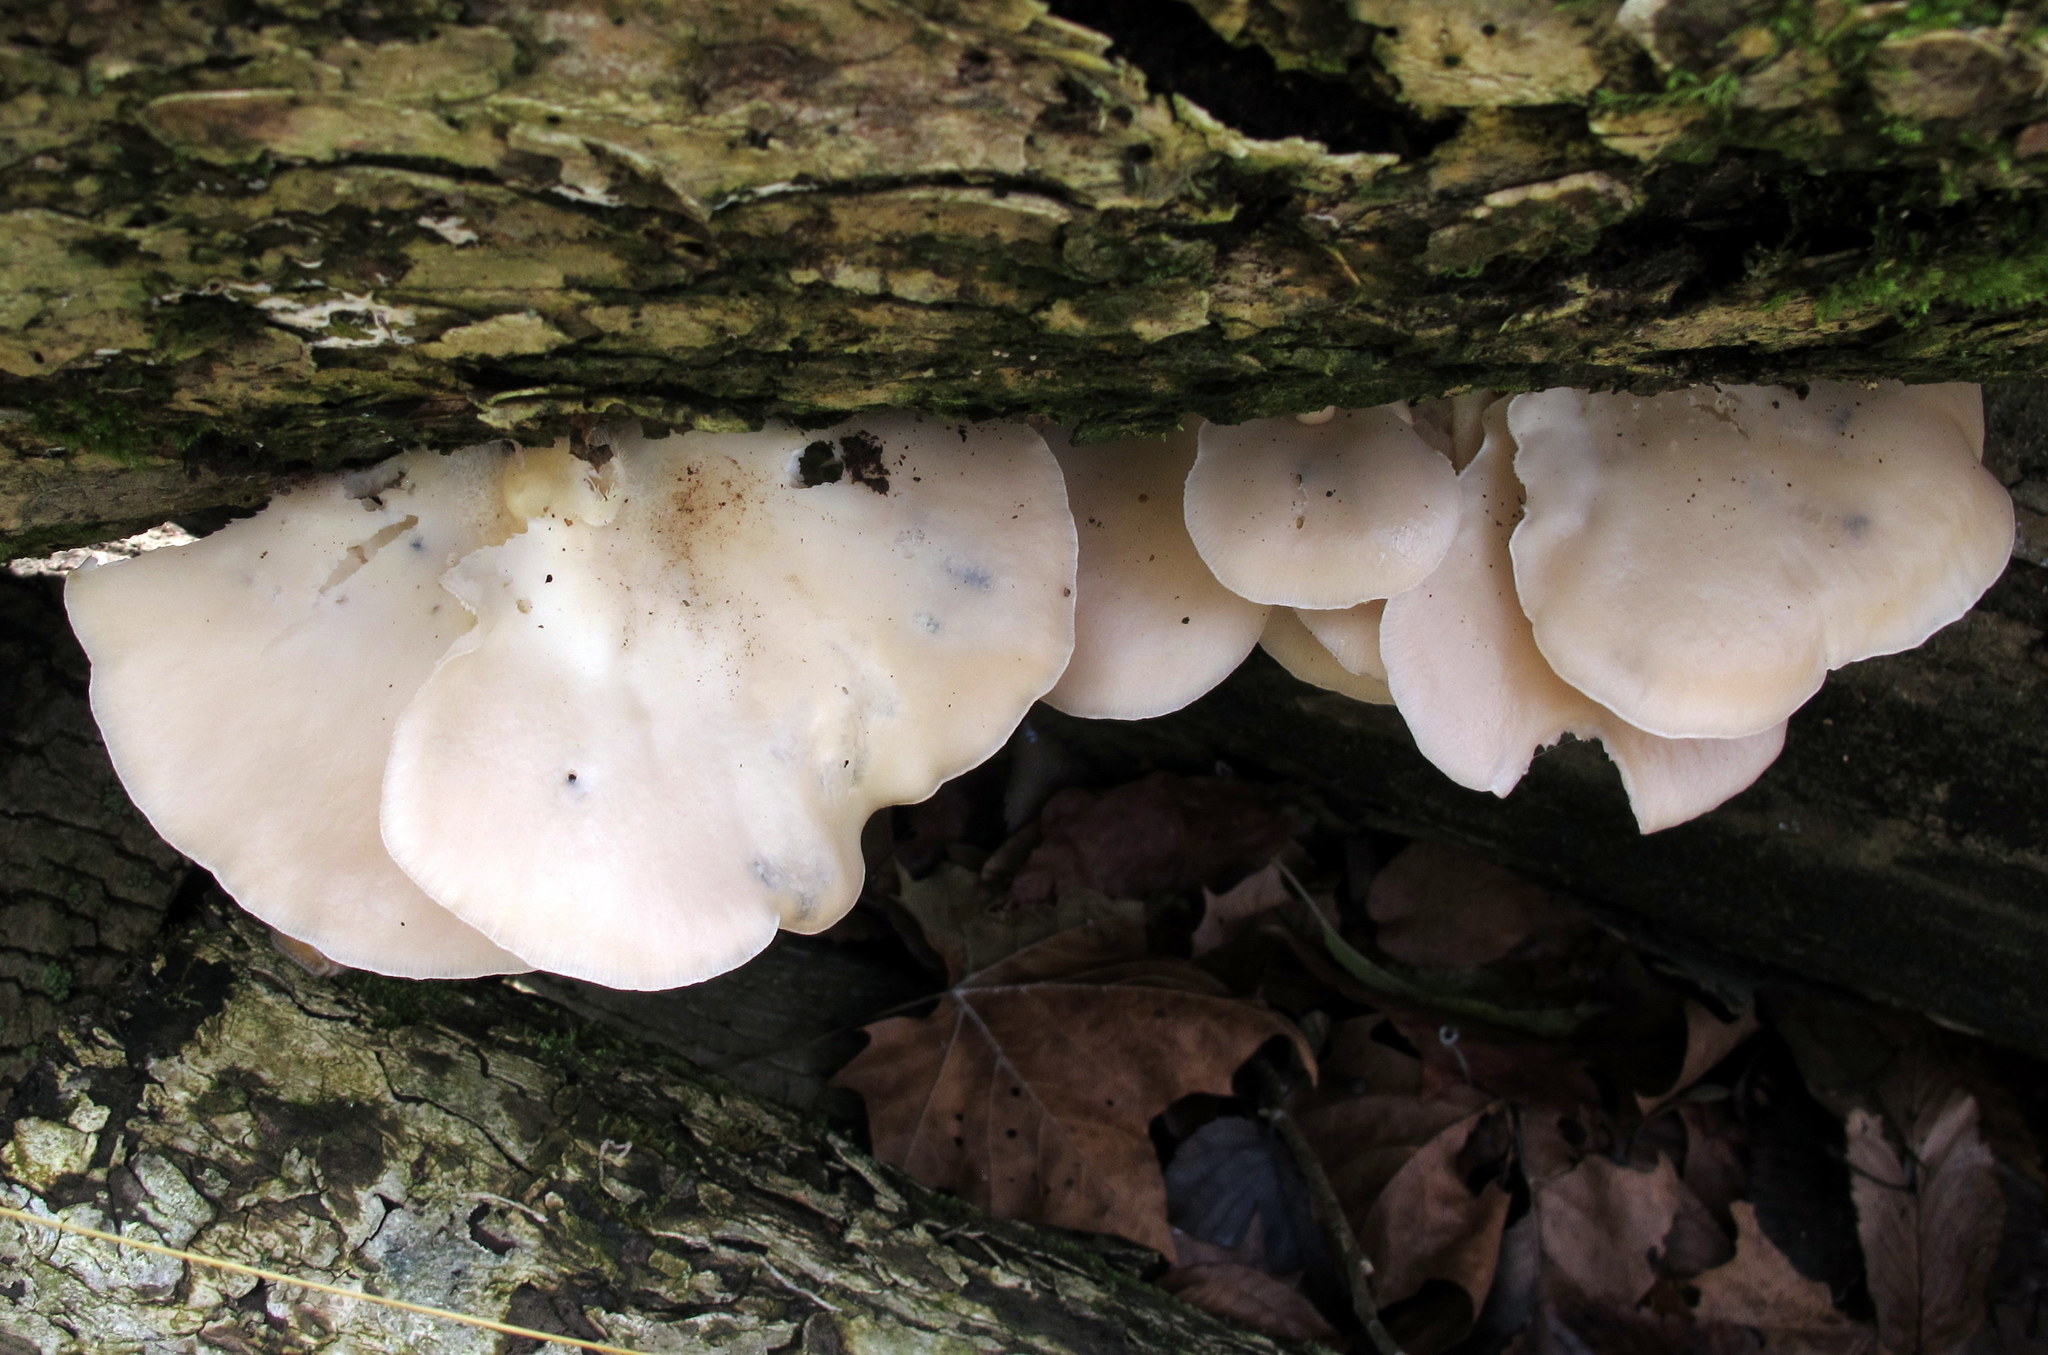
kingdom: Fungi
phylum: Basidiomycota
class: Agaricomycetes
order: Agaricales
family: Pleurotaceae
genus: Pleurotus
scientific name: Pleurotus ostreatus
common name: Oyster mushroom
